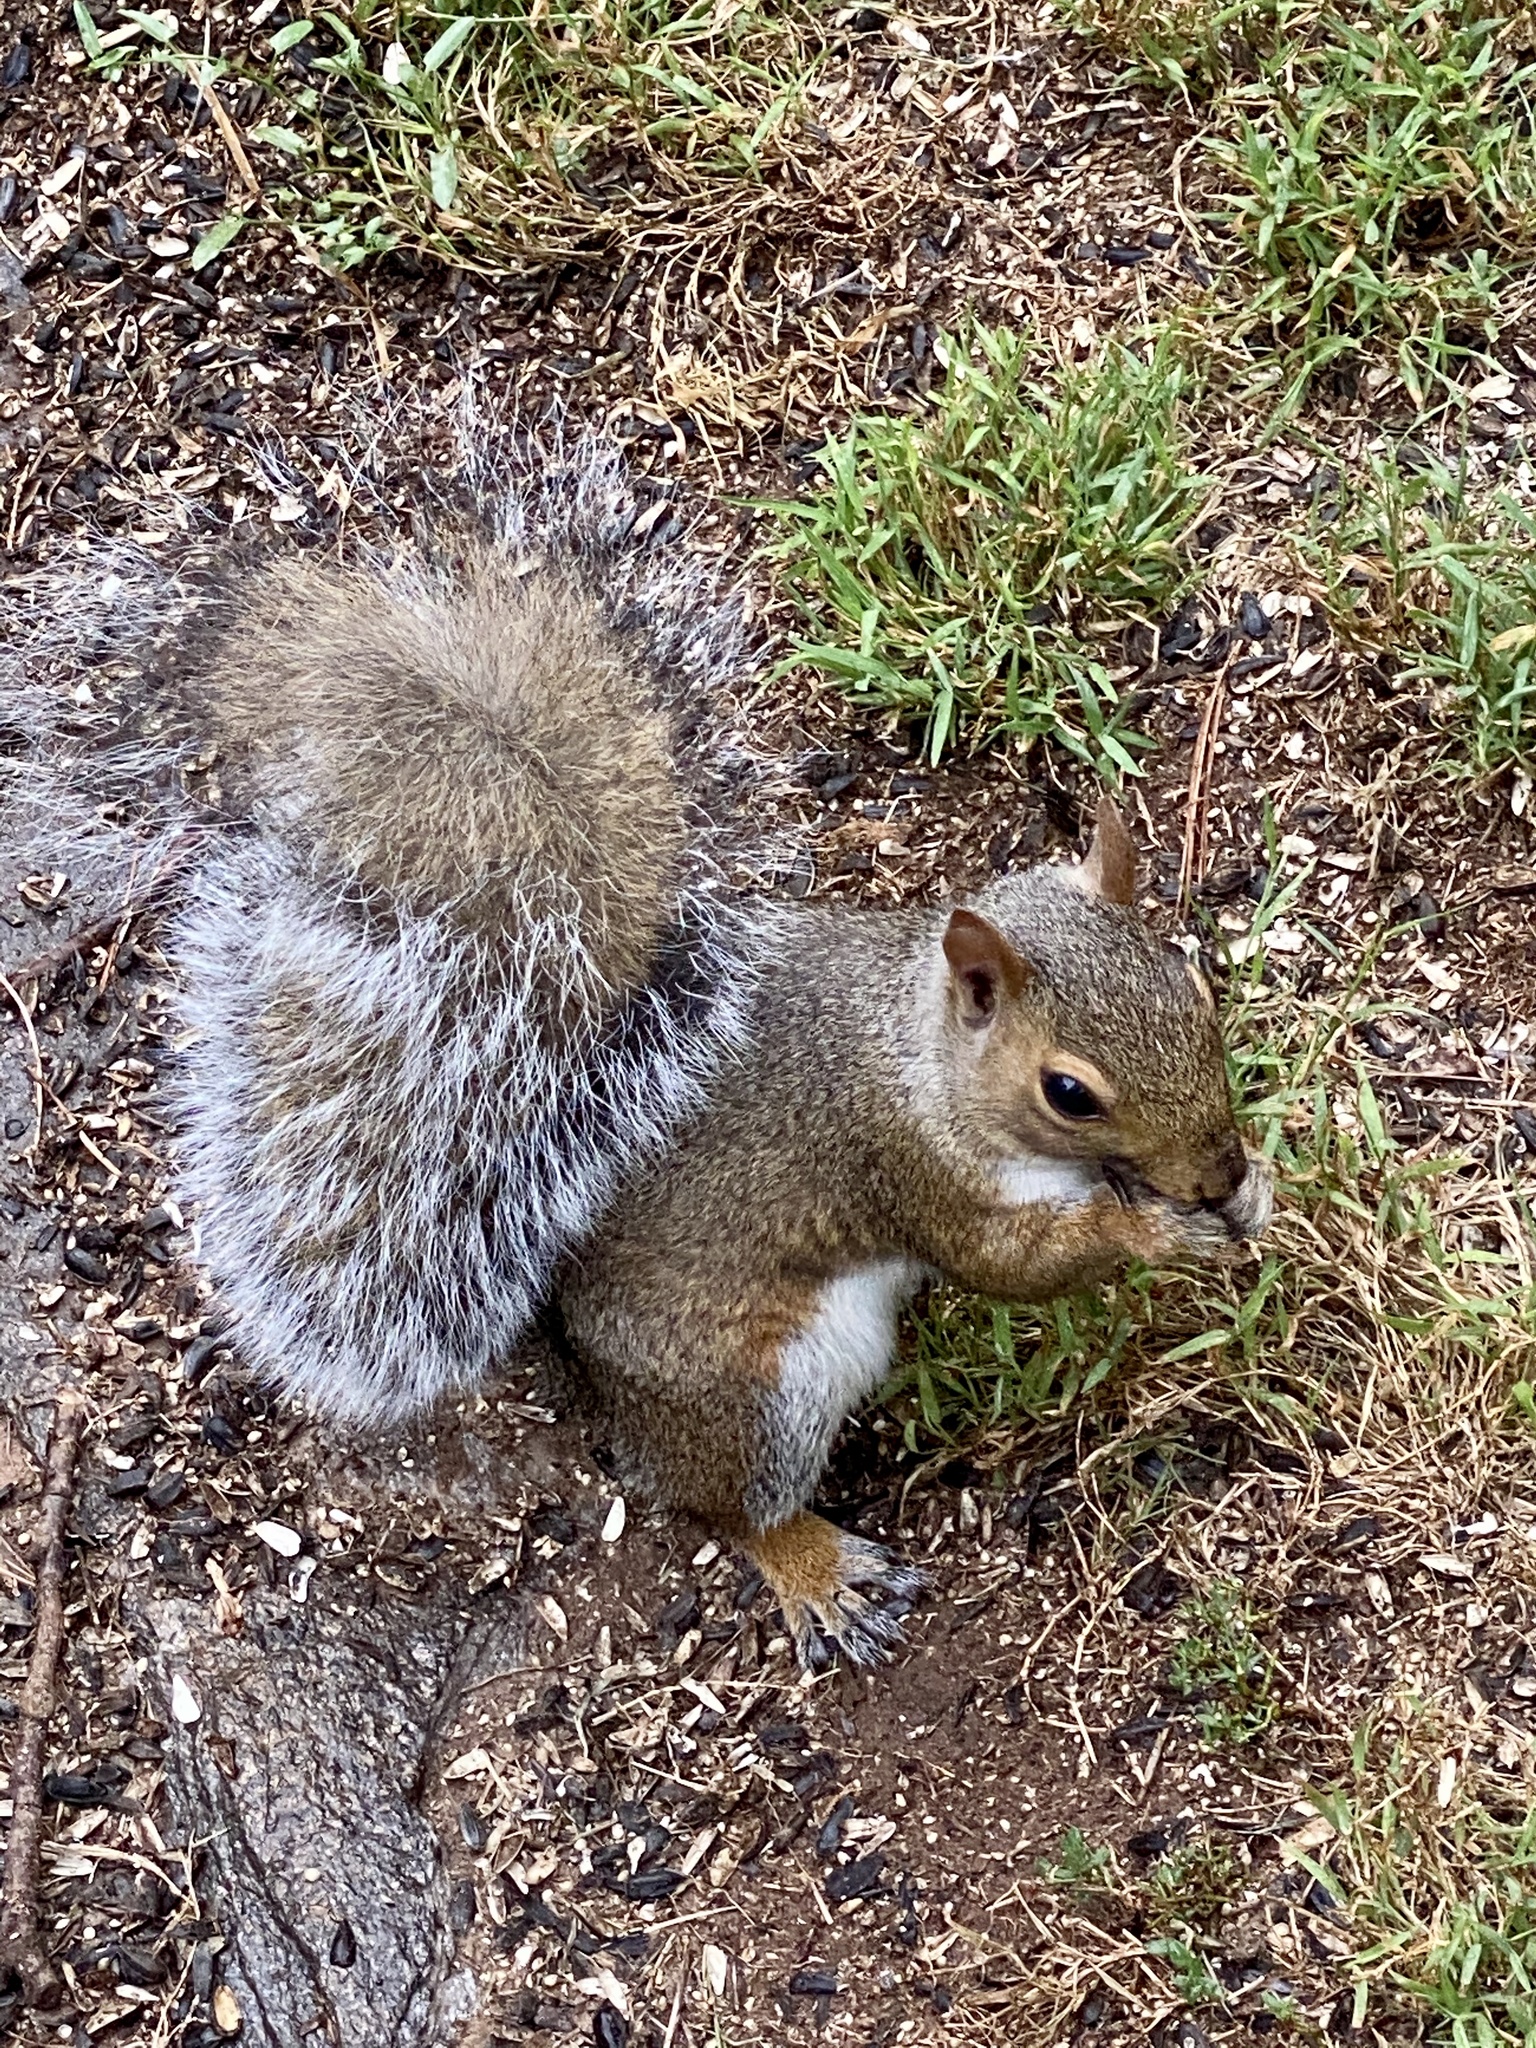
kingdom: Animalia
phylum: Chordata
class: Mammalia
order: Rodentia
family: Sciuridae
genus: Sciurus
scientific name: Sciurus carolinensis
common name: Eastern gray squirrel
